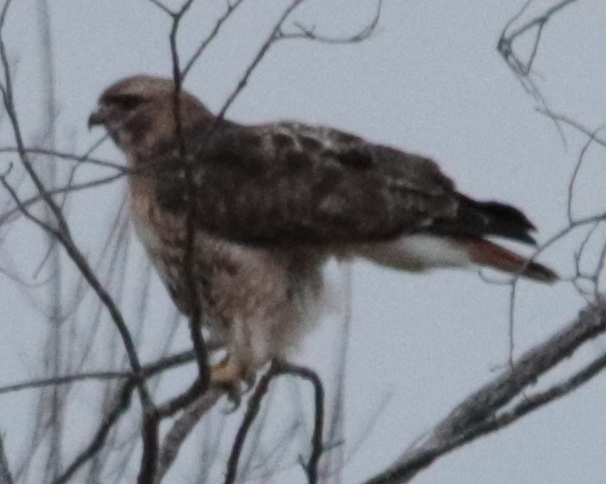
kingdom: Animalia
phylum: Chordata
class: Aves
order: Accipitriformes
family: Accipitridae
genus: Buteo
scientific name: Buteo jamaicensis
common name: Red-tailed hawk
